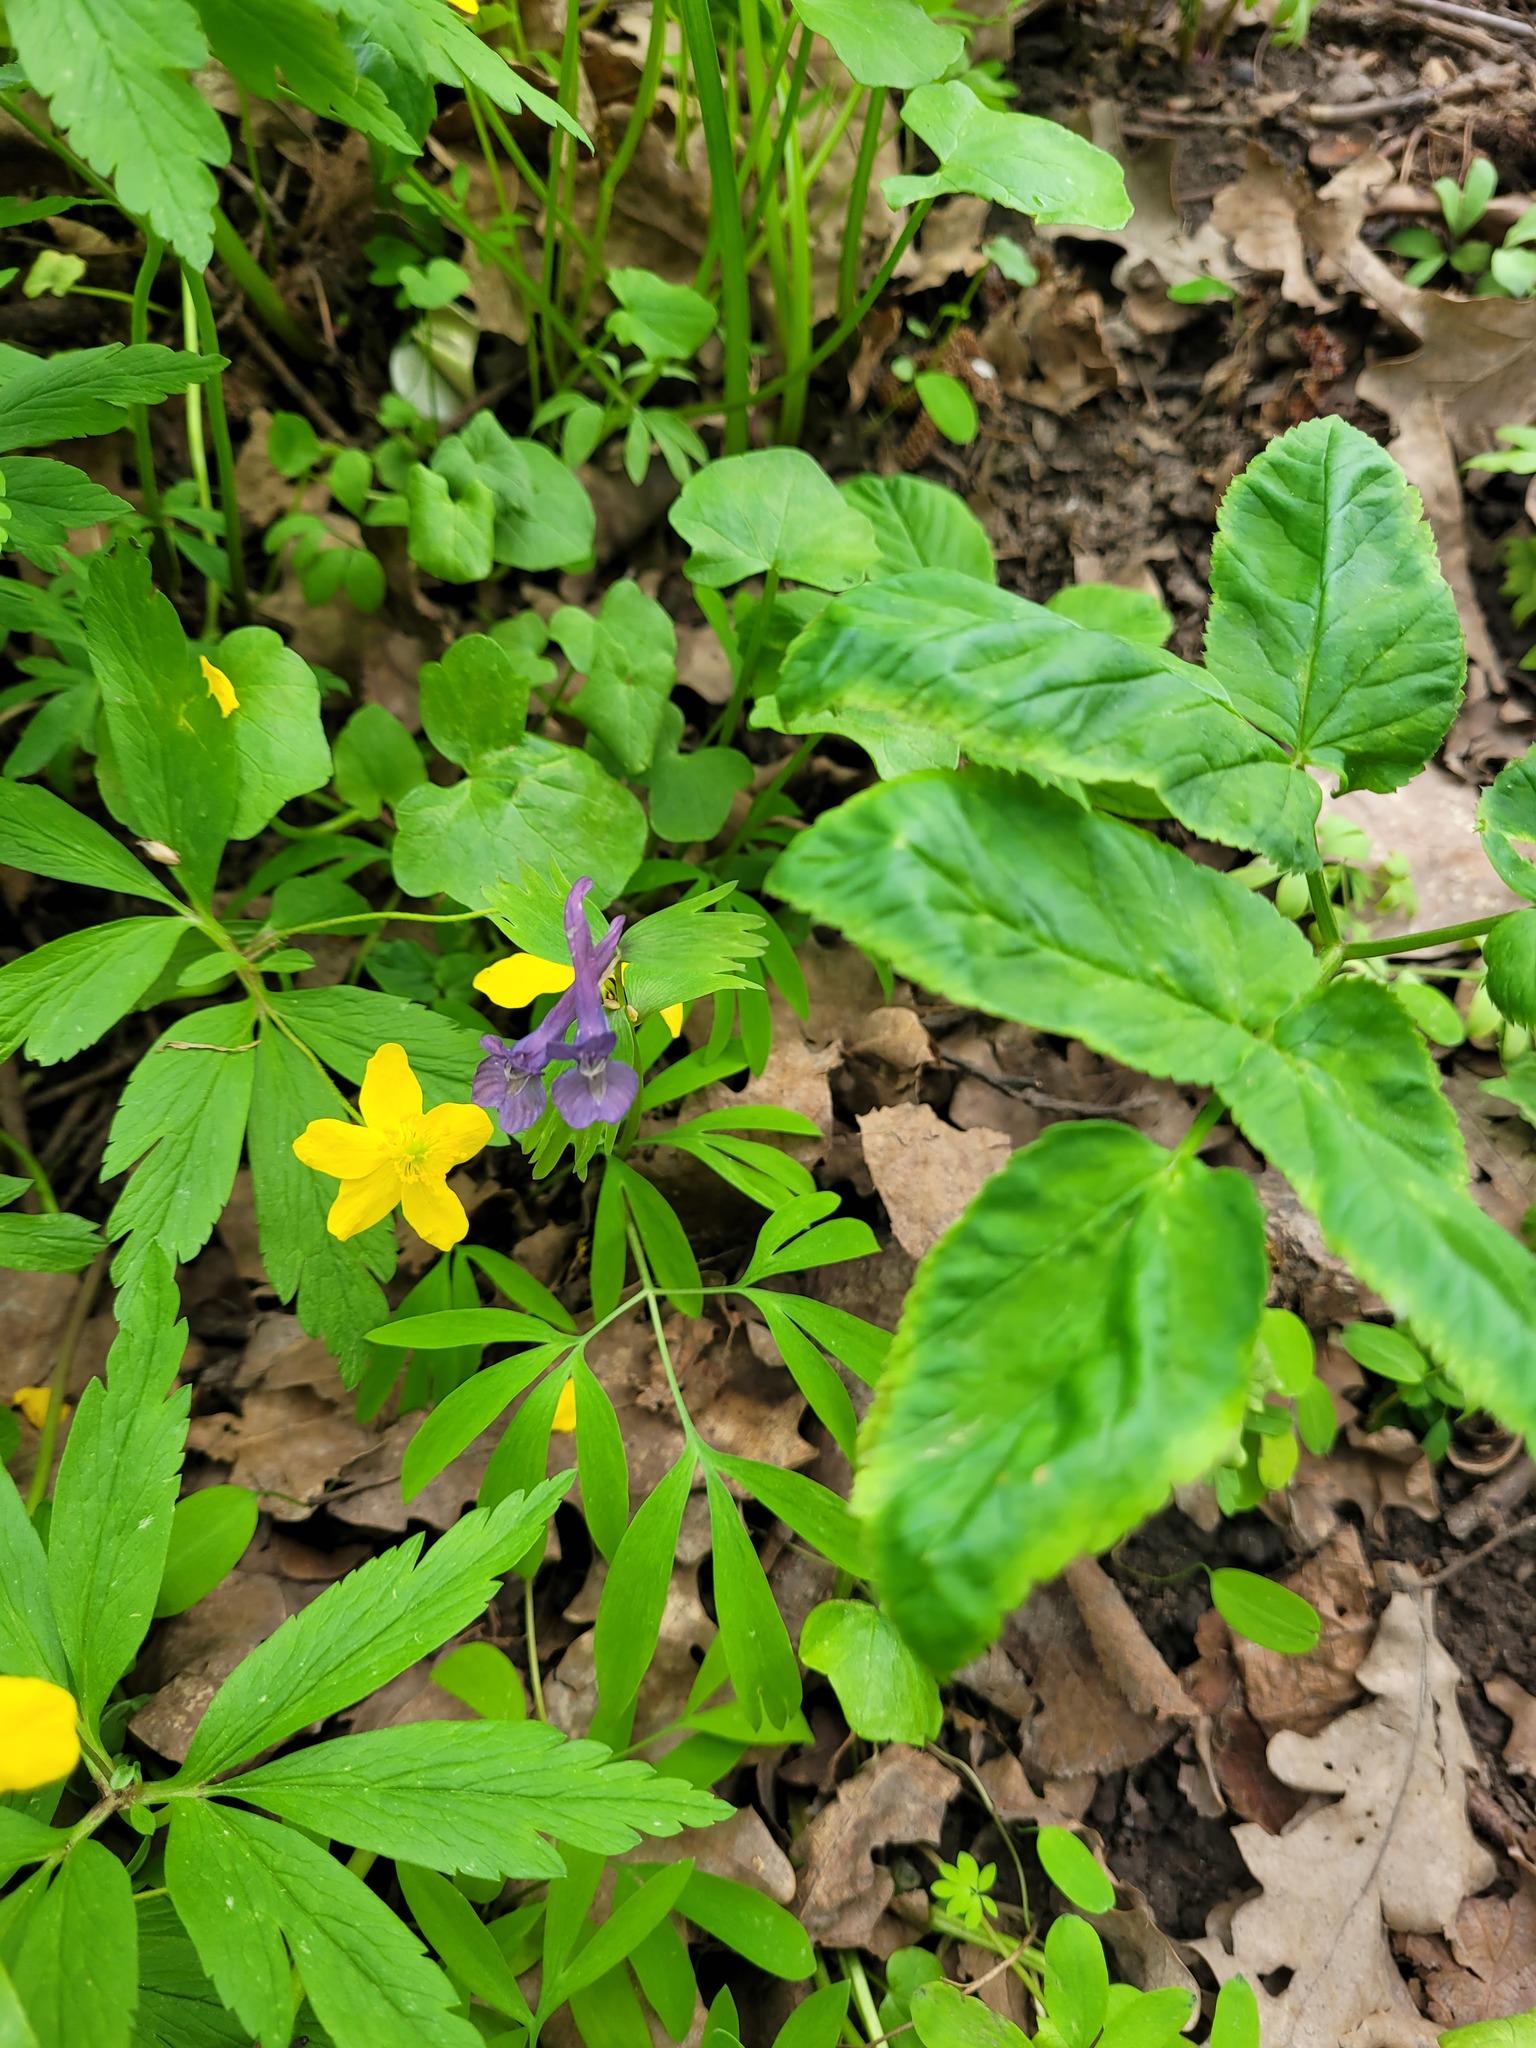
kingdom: Plantae
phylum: Tracheophyta
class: Magnoliopsida
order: Ranunculales
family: Papaveraceae
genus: Corydalis
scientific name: Corydalis solida
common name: Bird-in-a-bush
